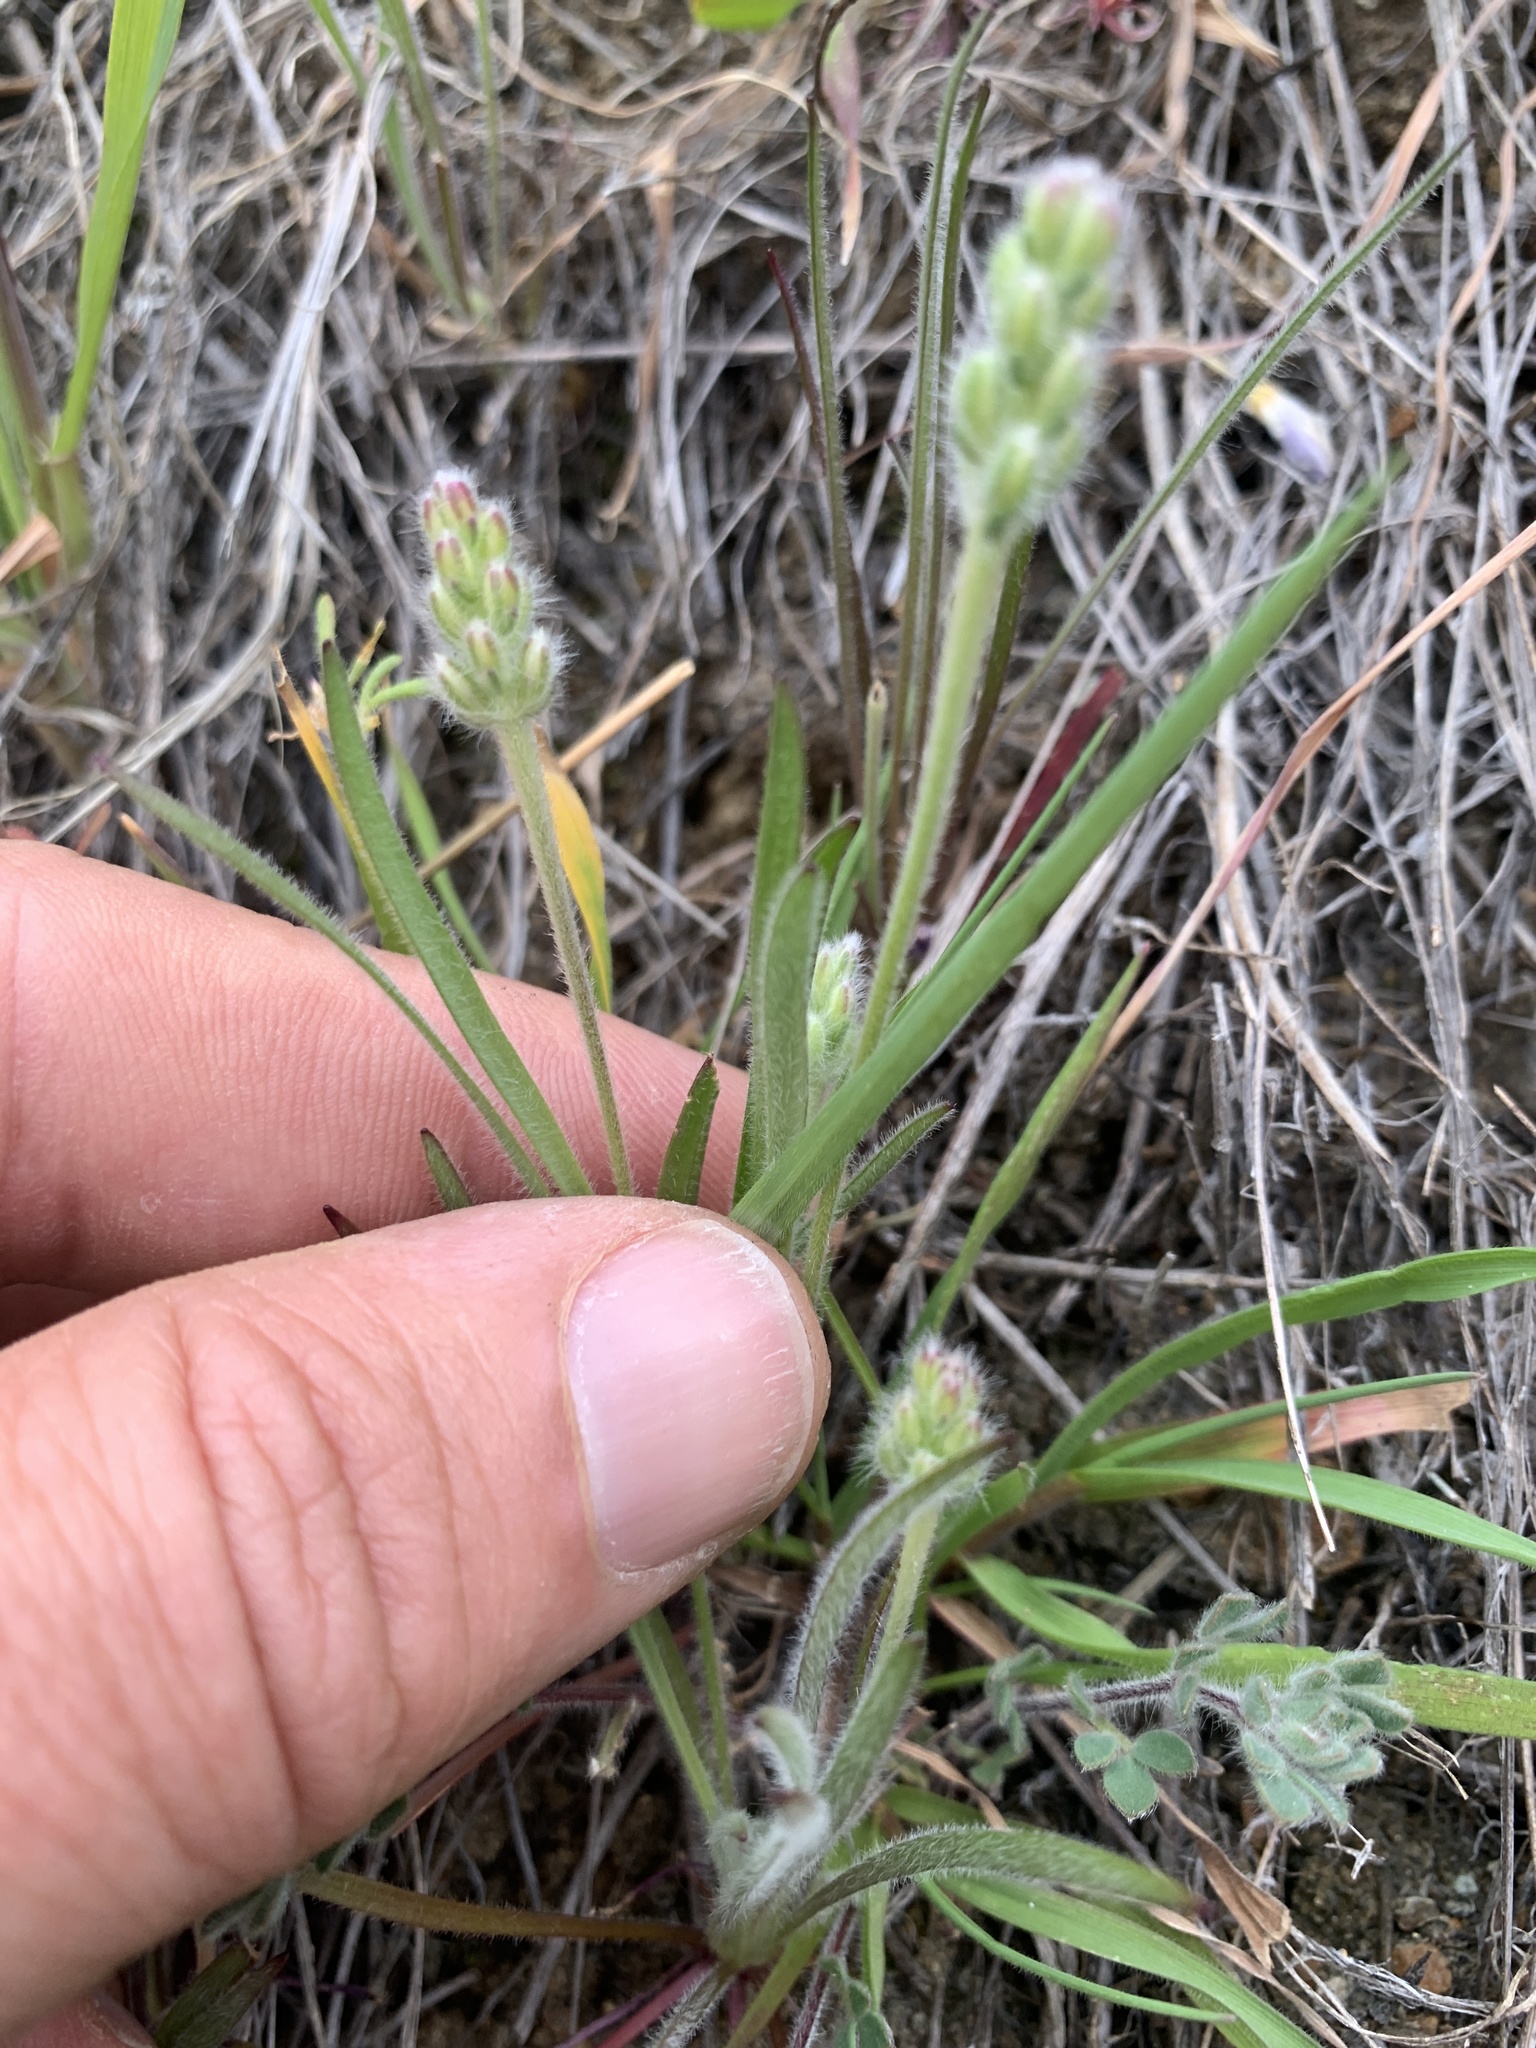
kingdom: Plantae
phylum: Tracheophyta
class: Magnoliopsida
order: Lamiales
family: Plantaginaceae
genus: Plantago
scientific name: Plantago erecta
